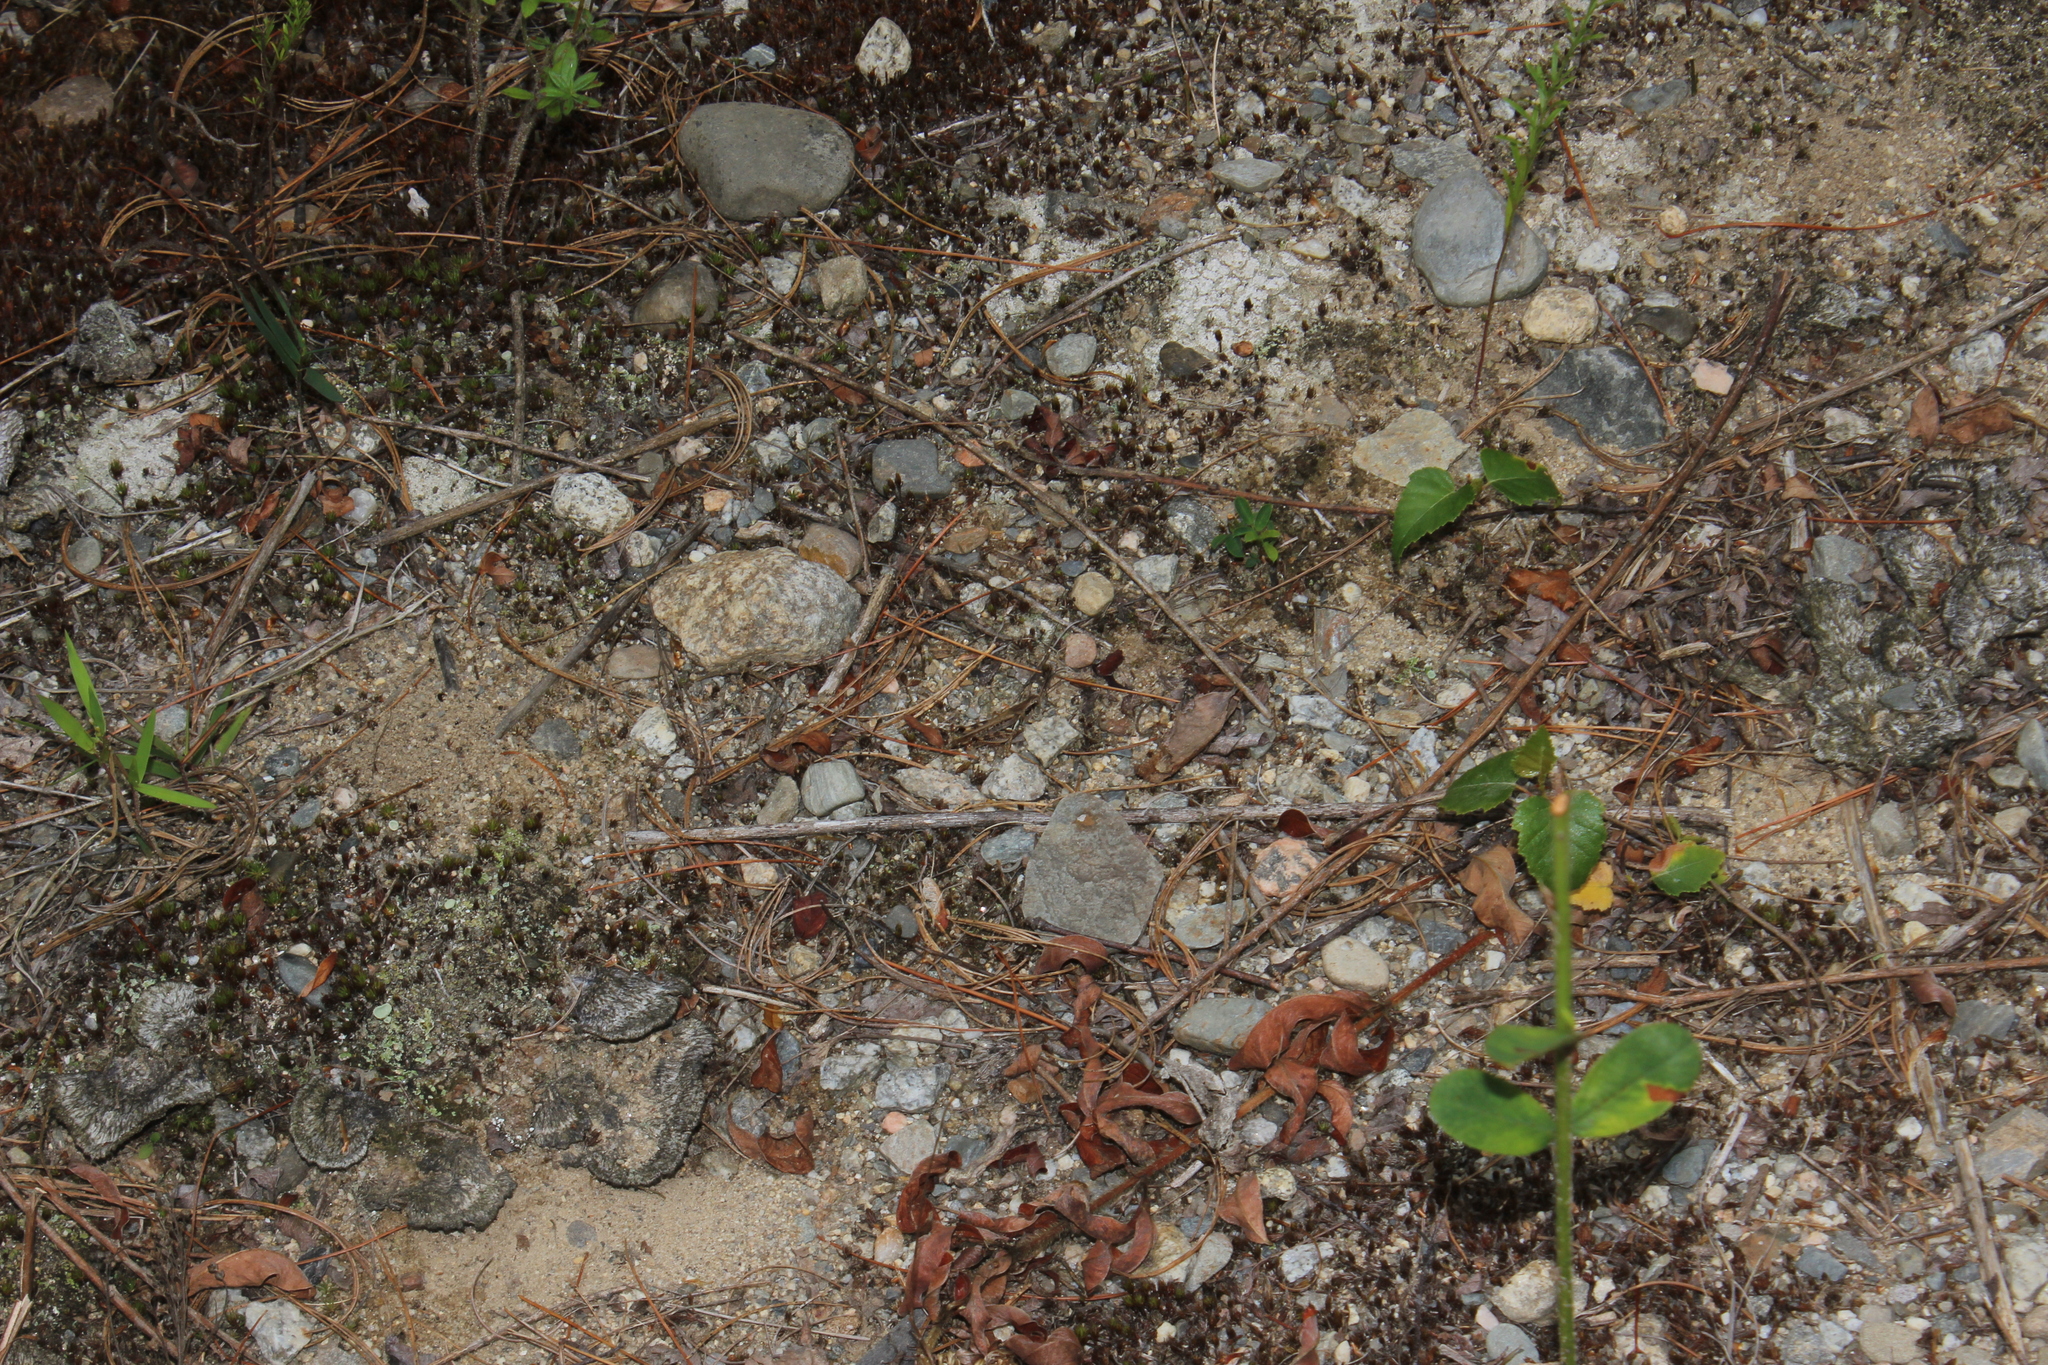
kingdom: Animalia
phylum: Arthropoda
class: Insecta
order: Orthoptera
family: Acrididae
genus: Melanoplus
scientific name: Melanoplus
